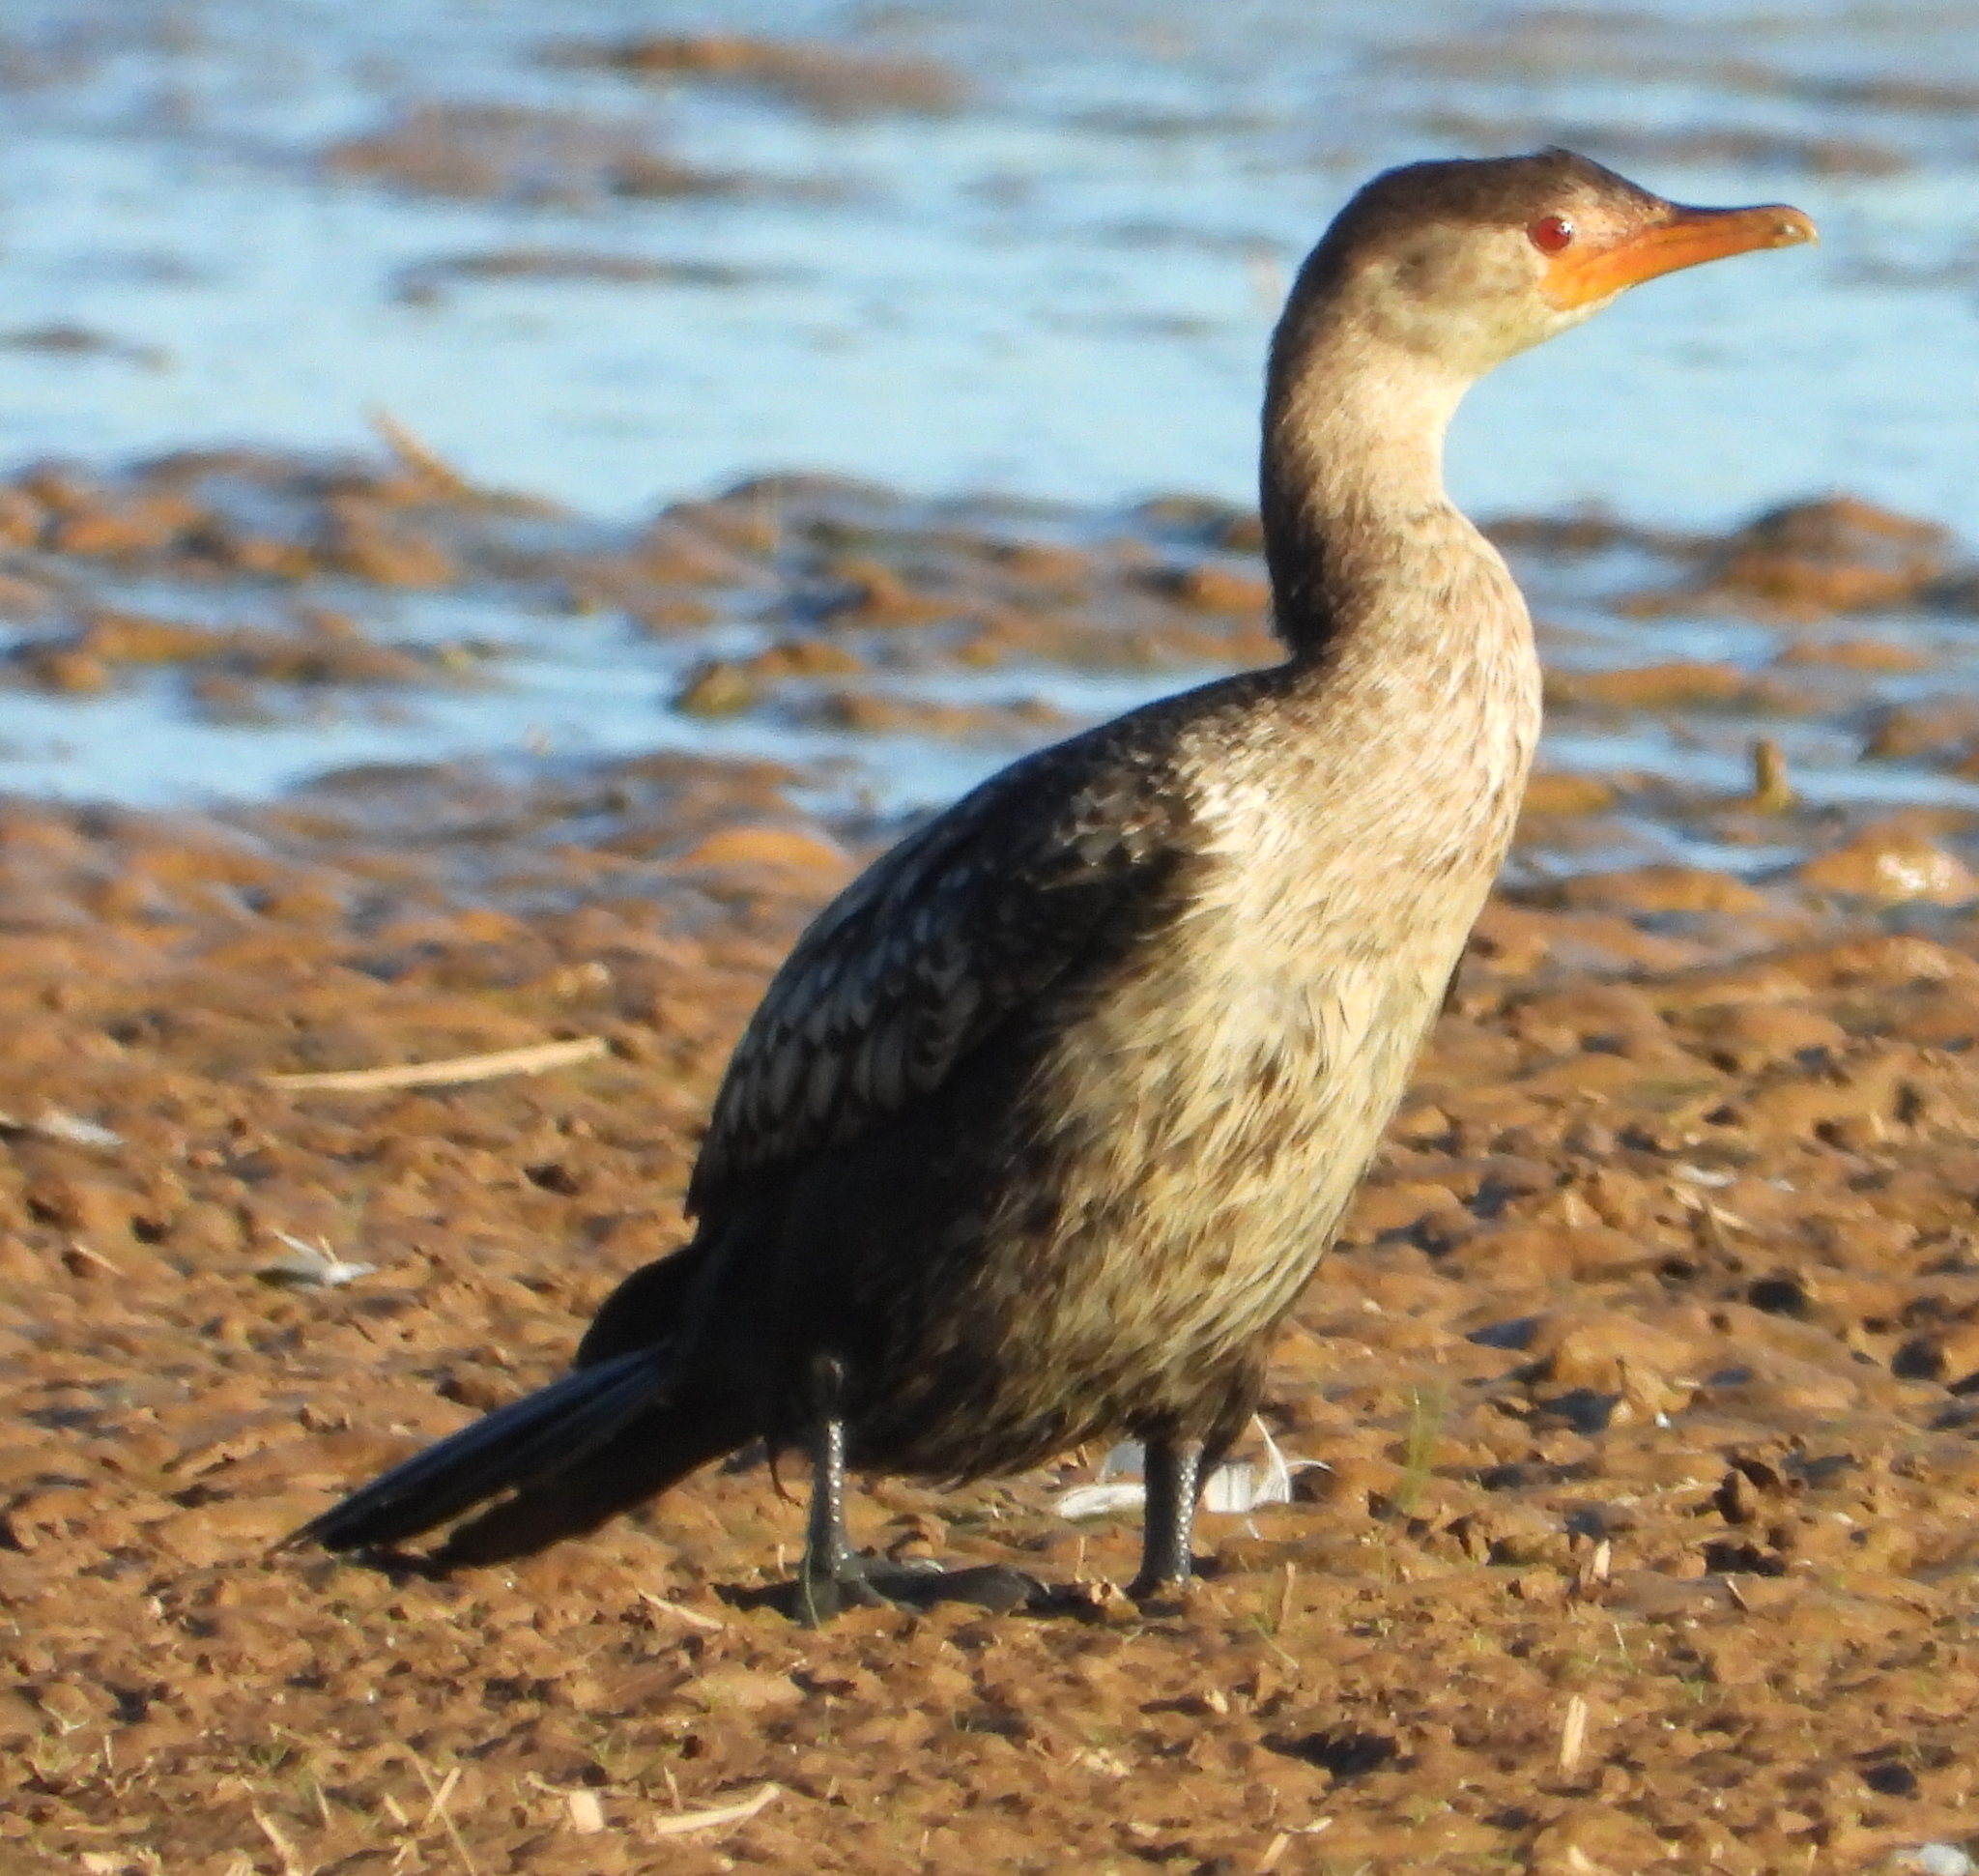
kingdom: Animalia
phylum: Chordata
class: Aves
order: Suliformes
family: Phalacrocoracidae
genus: Microcarbo
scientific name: Microcarbo africanus
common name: Long-tailed cormorant
